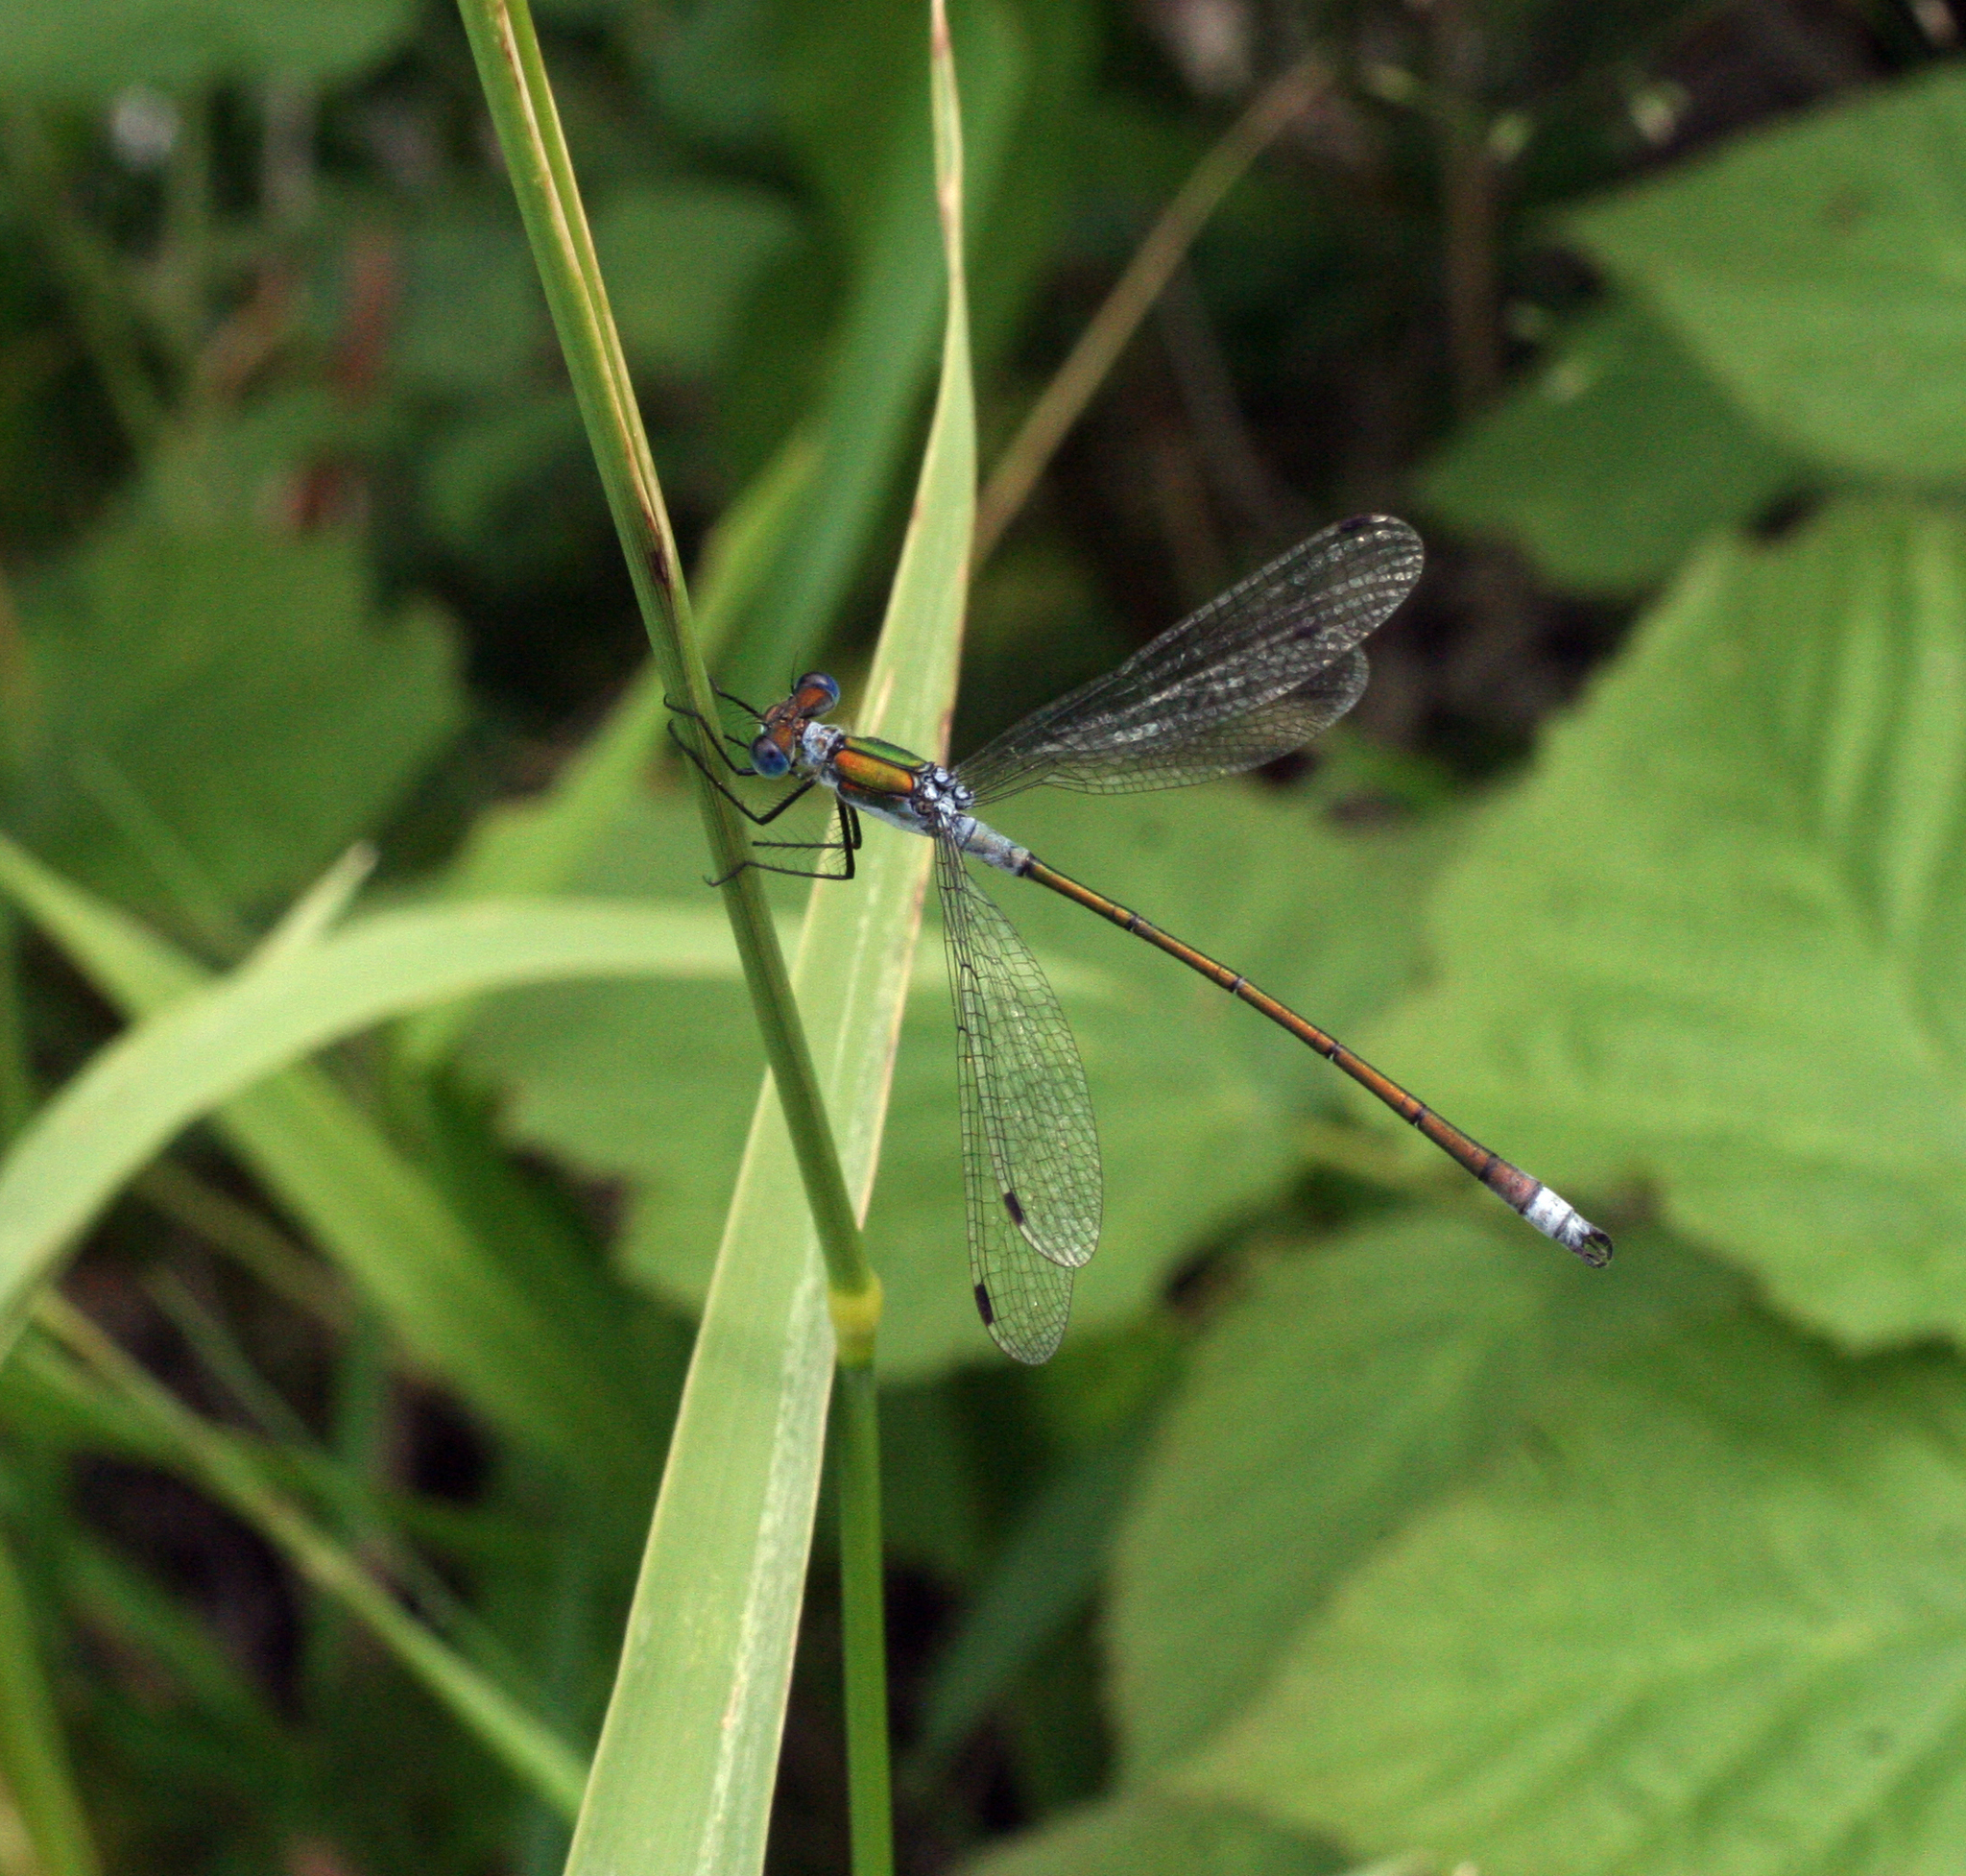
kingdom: Animalia
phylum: Arthropoda
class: Insecta
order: Odonata
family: Lestidae
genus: Lestes
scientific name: Lestes sponsa
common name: Common spreadwing
